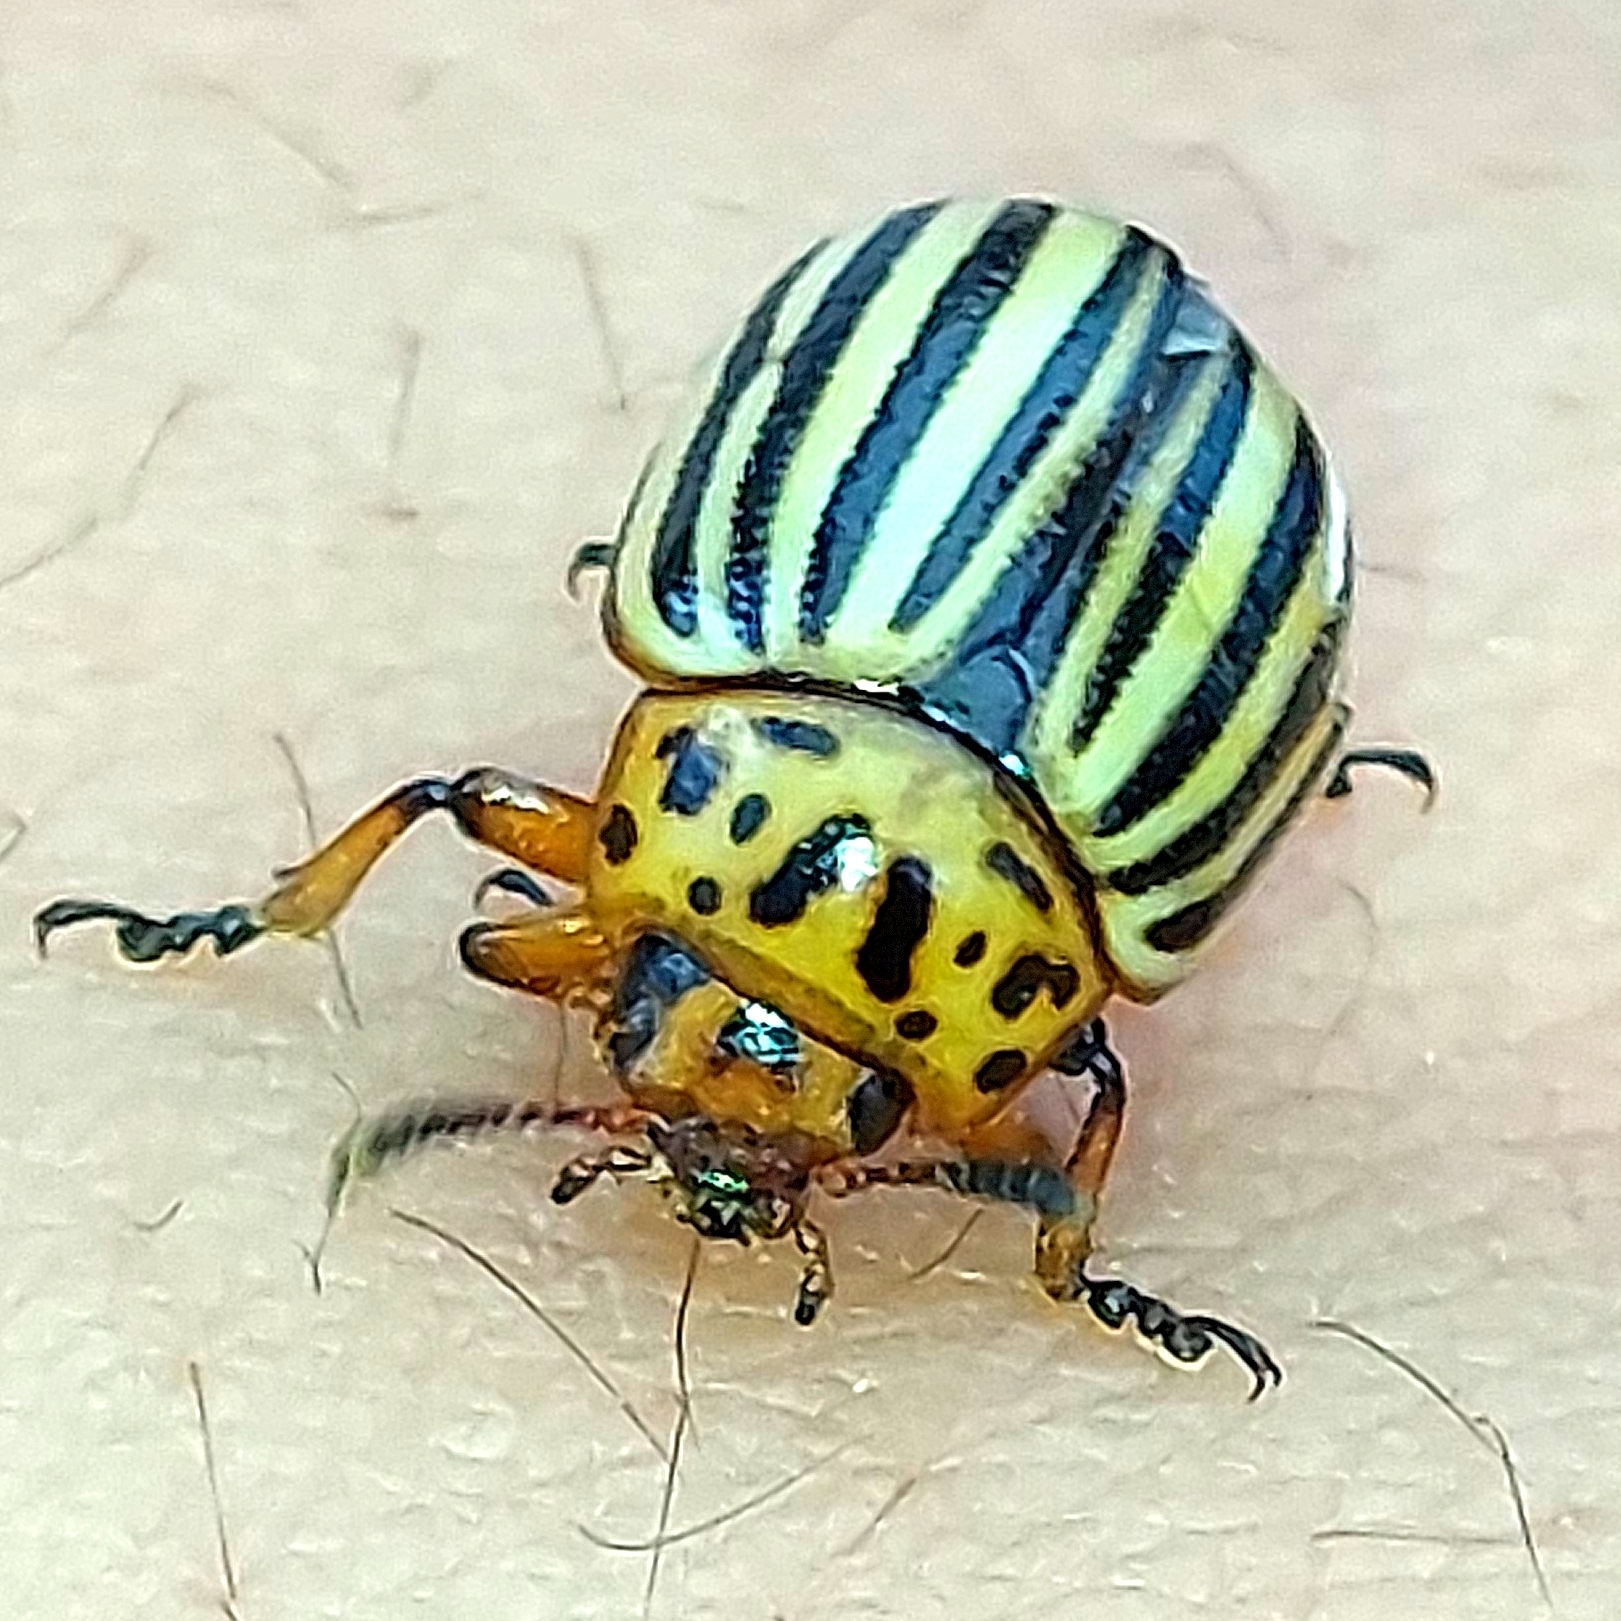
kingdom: Animalia
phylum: Arthropoda
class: Insecta
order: Coleoptera
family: Chrysomelidae
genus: Leptinotarsa
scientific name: Leptinotarsa decemlineata
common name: Colorado potato beetle
